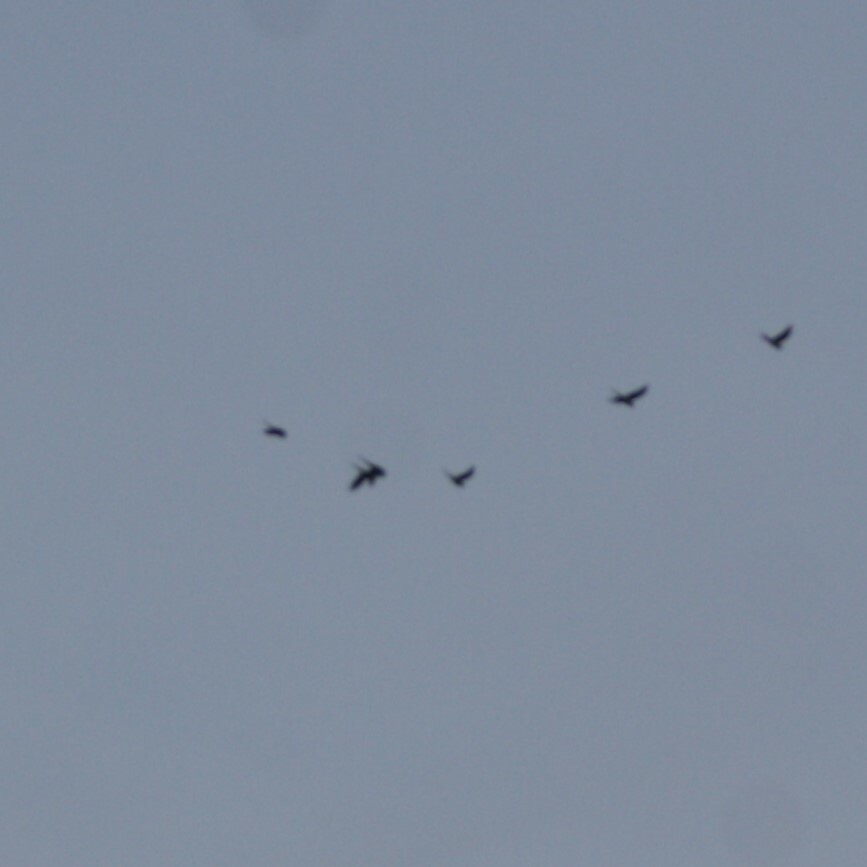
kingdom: Animalia
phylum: Chordata
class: Aves
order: Psittaciformes
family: Psittacidae
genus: Psittacula
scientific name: Psittacula krameri
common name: Rose-ringed parakeet
